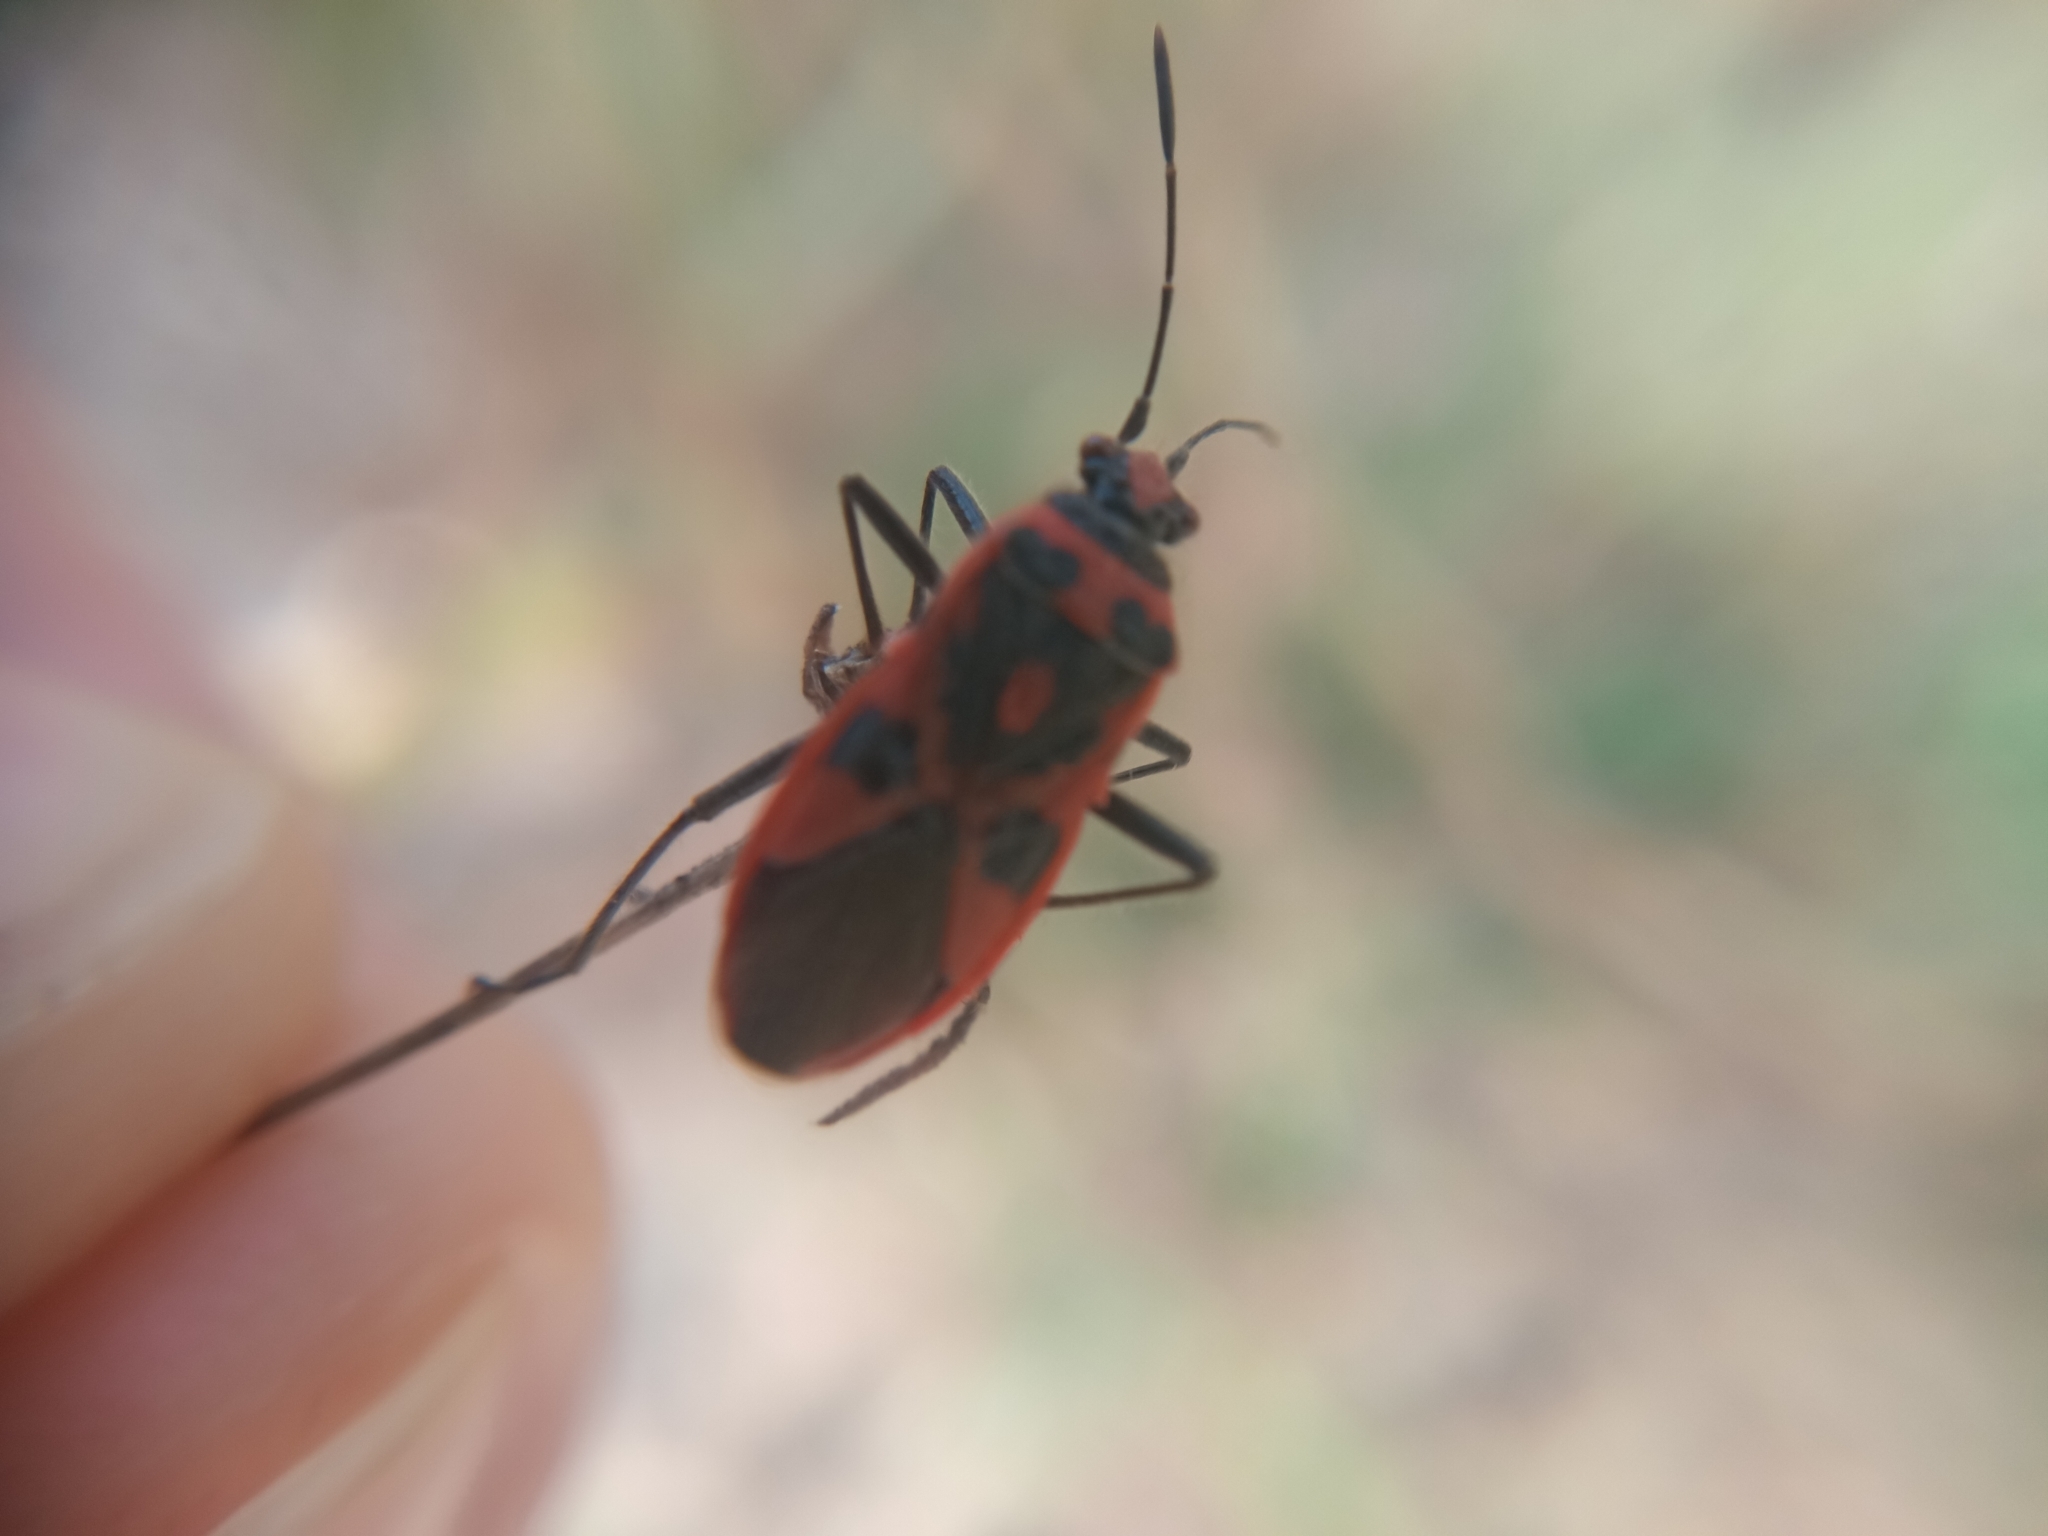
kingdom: Animalia
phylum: Arthropoda
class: Insecta
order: Hemiptera
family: Rhopalidae
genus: Corizus
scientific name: Corizus hyoscyami
